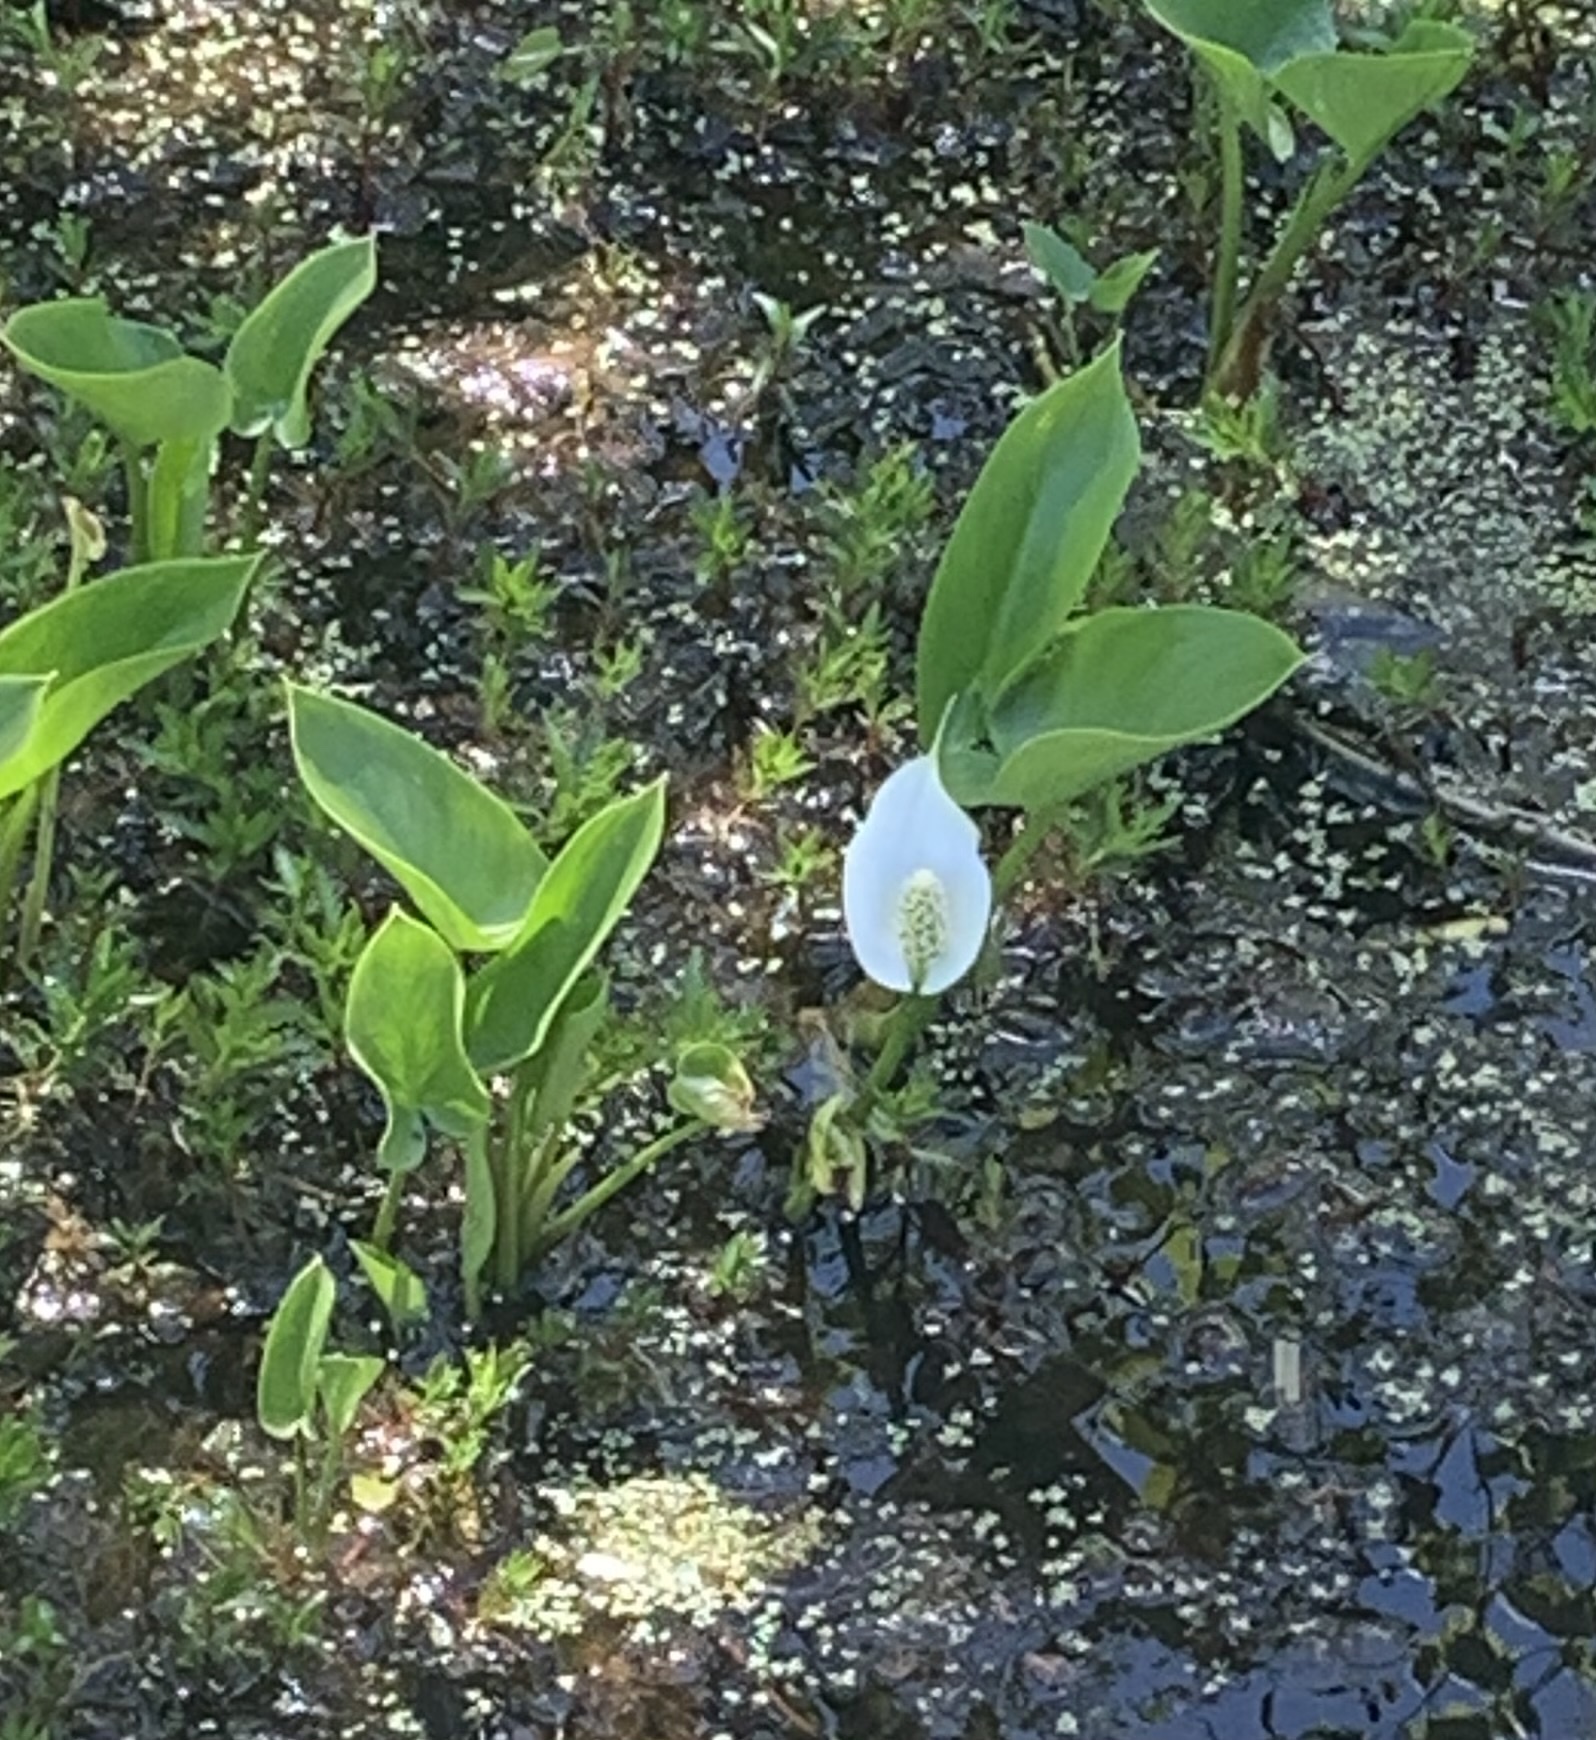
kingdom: Plantae
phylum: Tracheophyta
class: Liliopsida
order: Alismatales
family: Araceae
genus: Calla
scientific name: Calla palustris
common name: Bog arum
